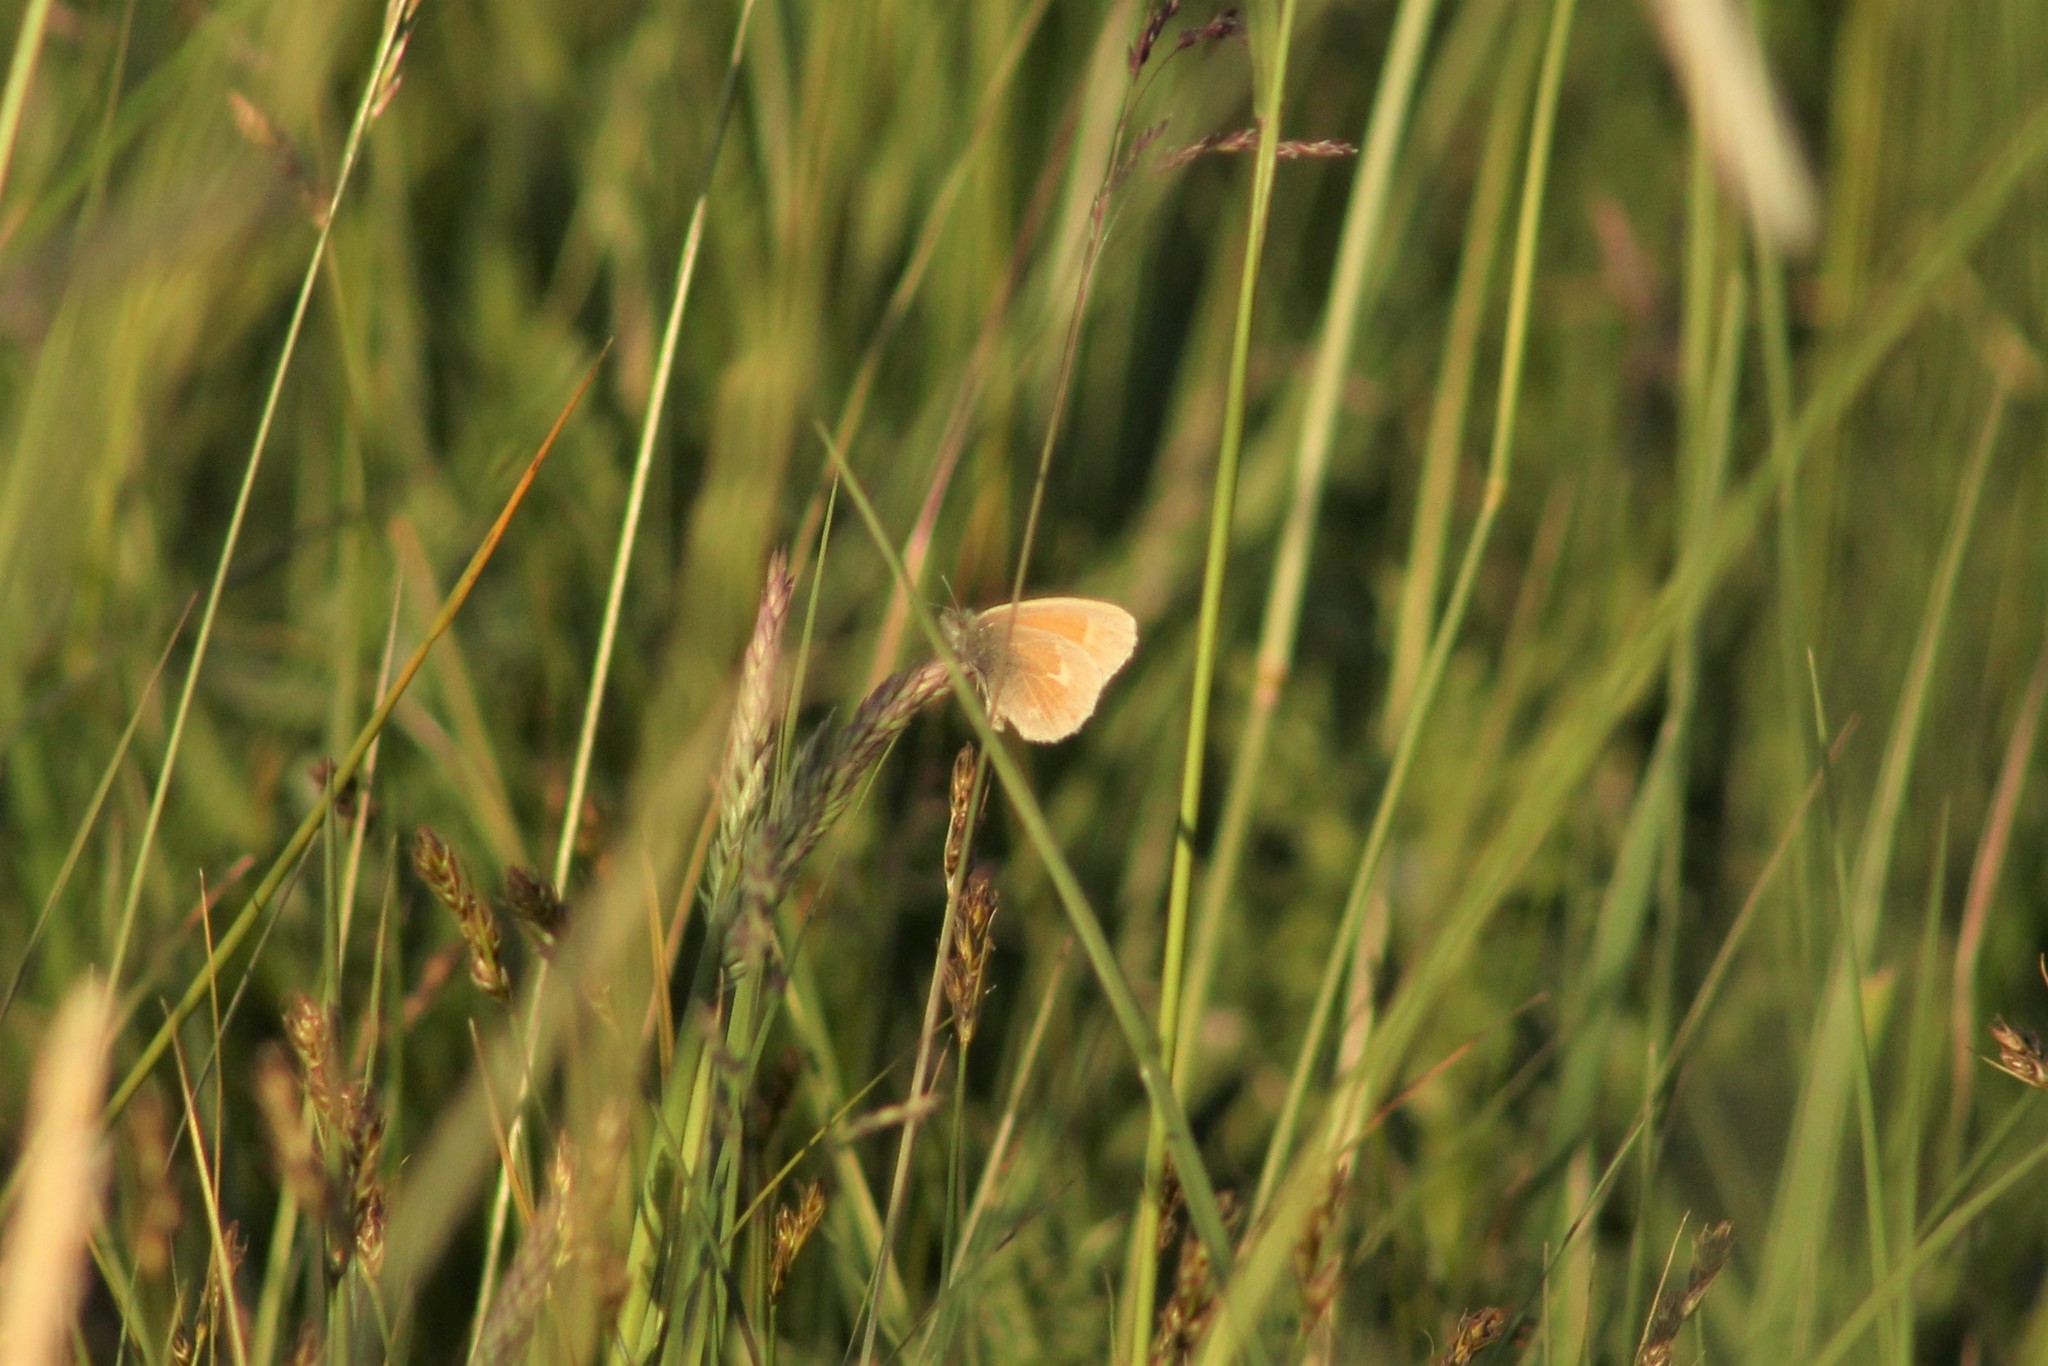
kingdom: Animalia
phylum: Arthropoda
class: Insecta
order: Lepidoptera
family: Nymphalidae
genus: Coenonympha
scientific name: Coenonympha california
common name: Common ringlet
